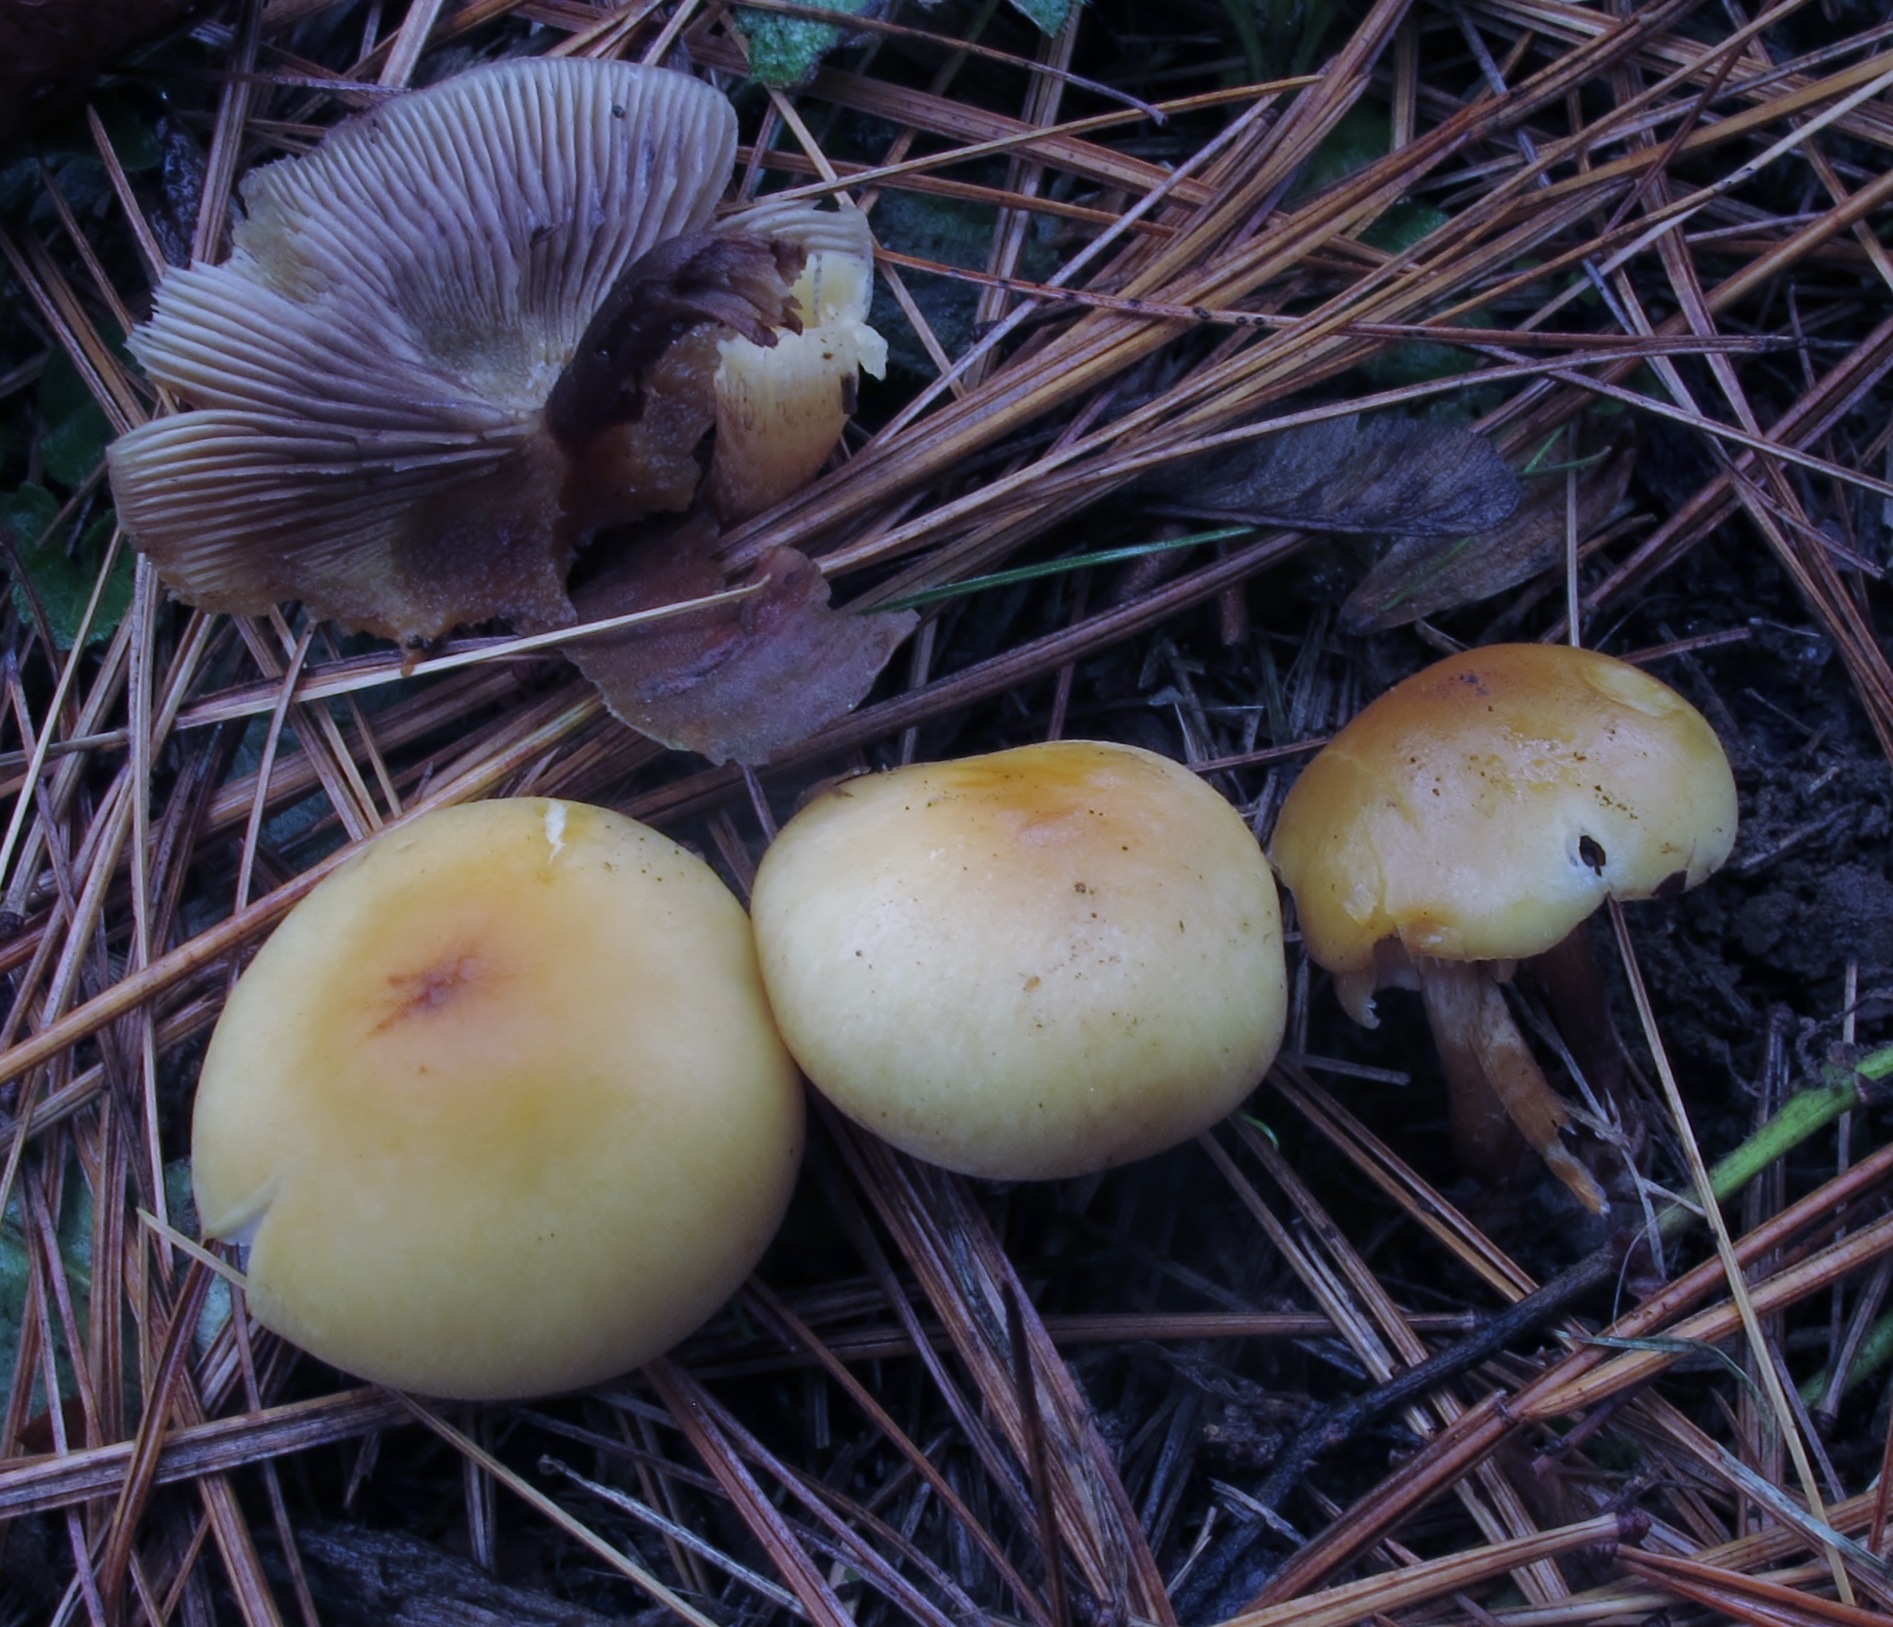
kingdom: Fungi
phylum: Basidiomycota
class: Agaricomycetes
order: Agaricales
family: Strophariaceae
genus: Hypholoma
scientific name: Hypholoma capnoides
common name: Conifer tuft
